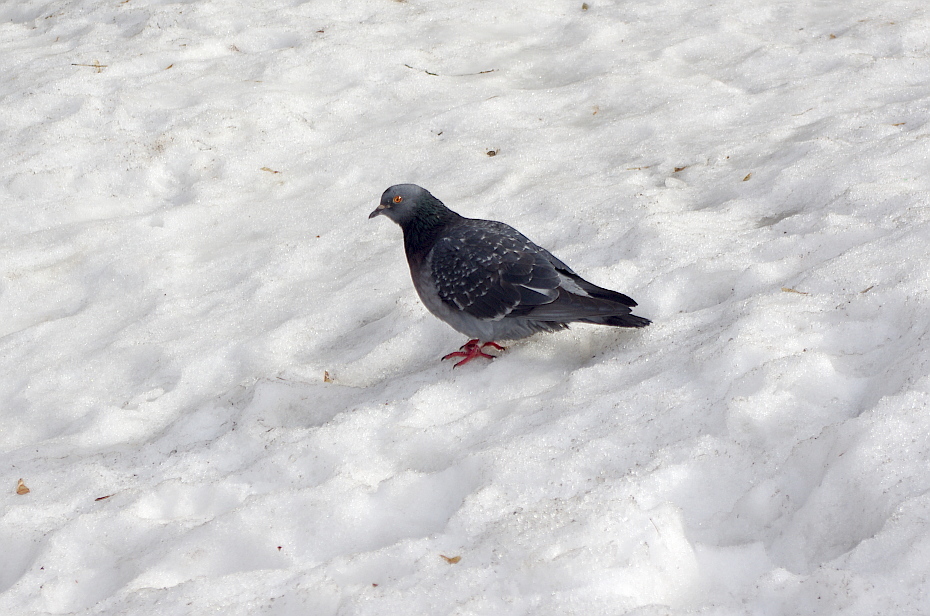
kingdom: Animalia
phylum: Chordata
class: Aves
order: Columbiformes
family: Columbidae
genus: Columba
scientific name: Columba livia
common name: Rock pigeon
